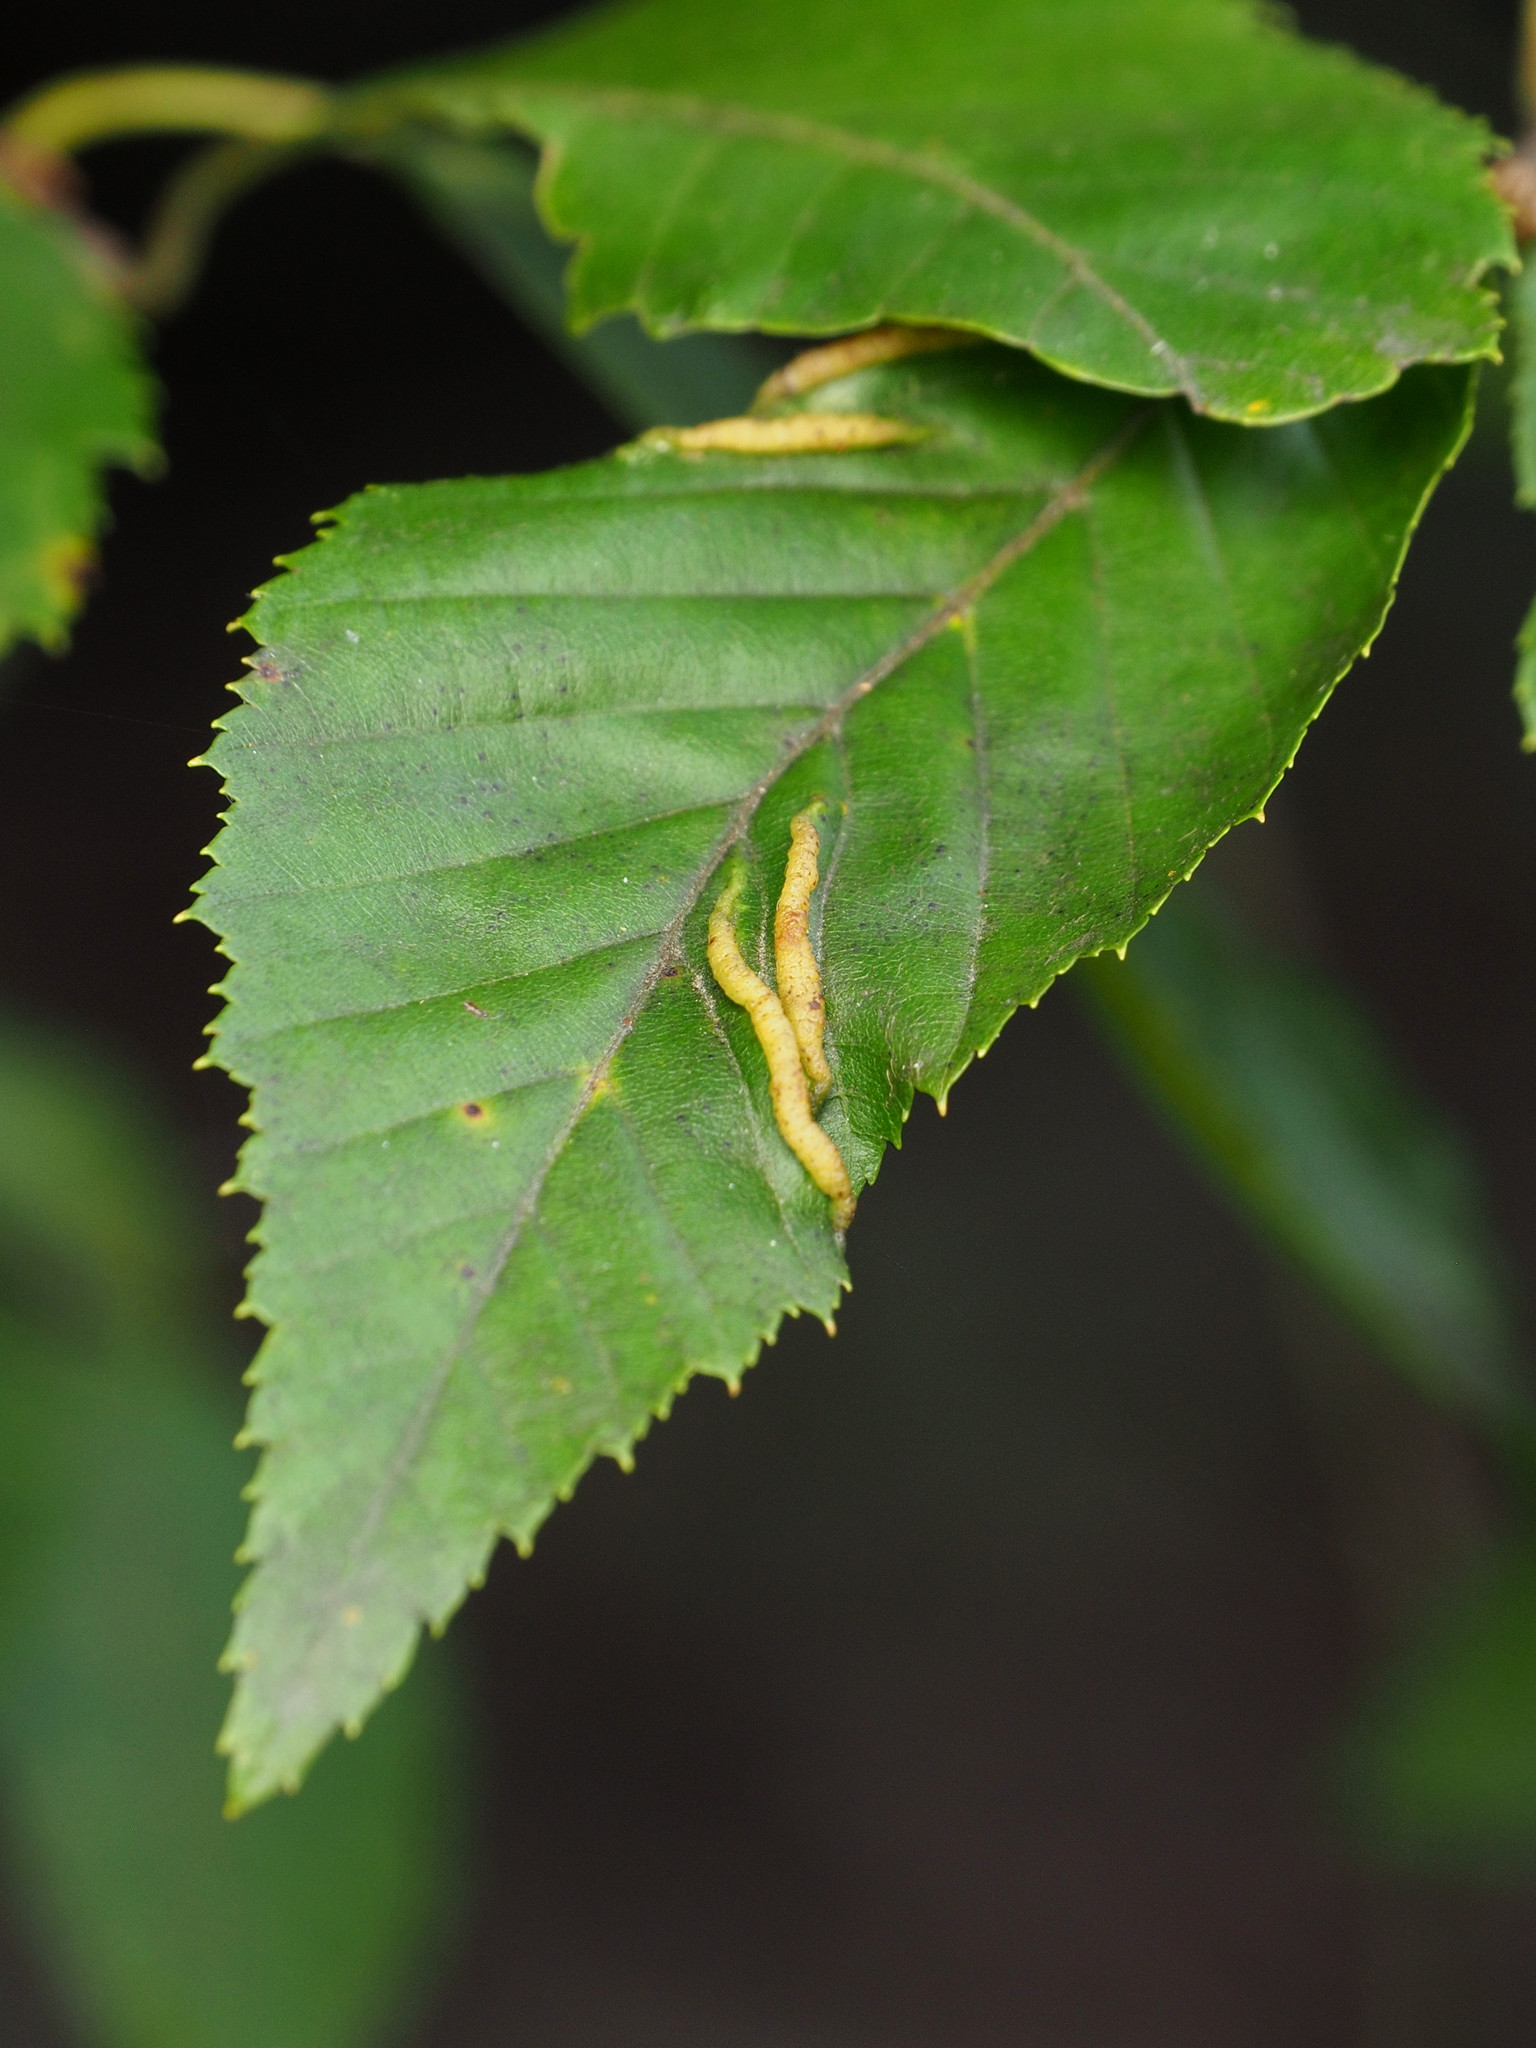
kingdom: Animalia
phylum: Arthropoda
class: Insecta
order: Diptera
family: Cecidomyiidae
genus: Dasineura
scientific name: Dasineura pudibunda
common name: Hornbeam leaf gall midge
